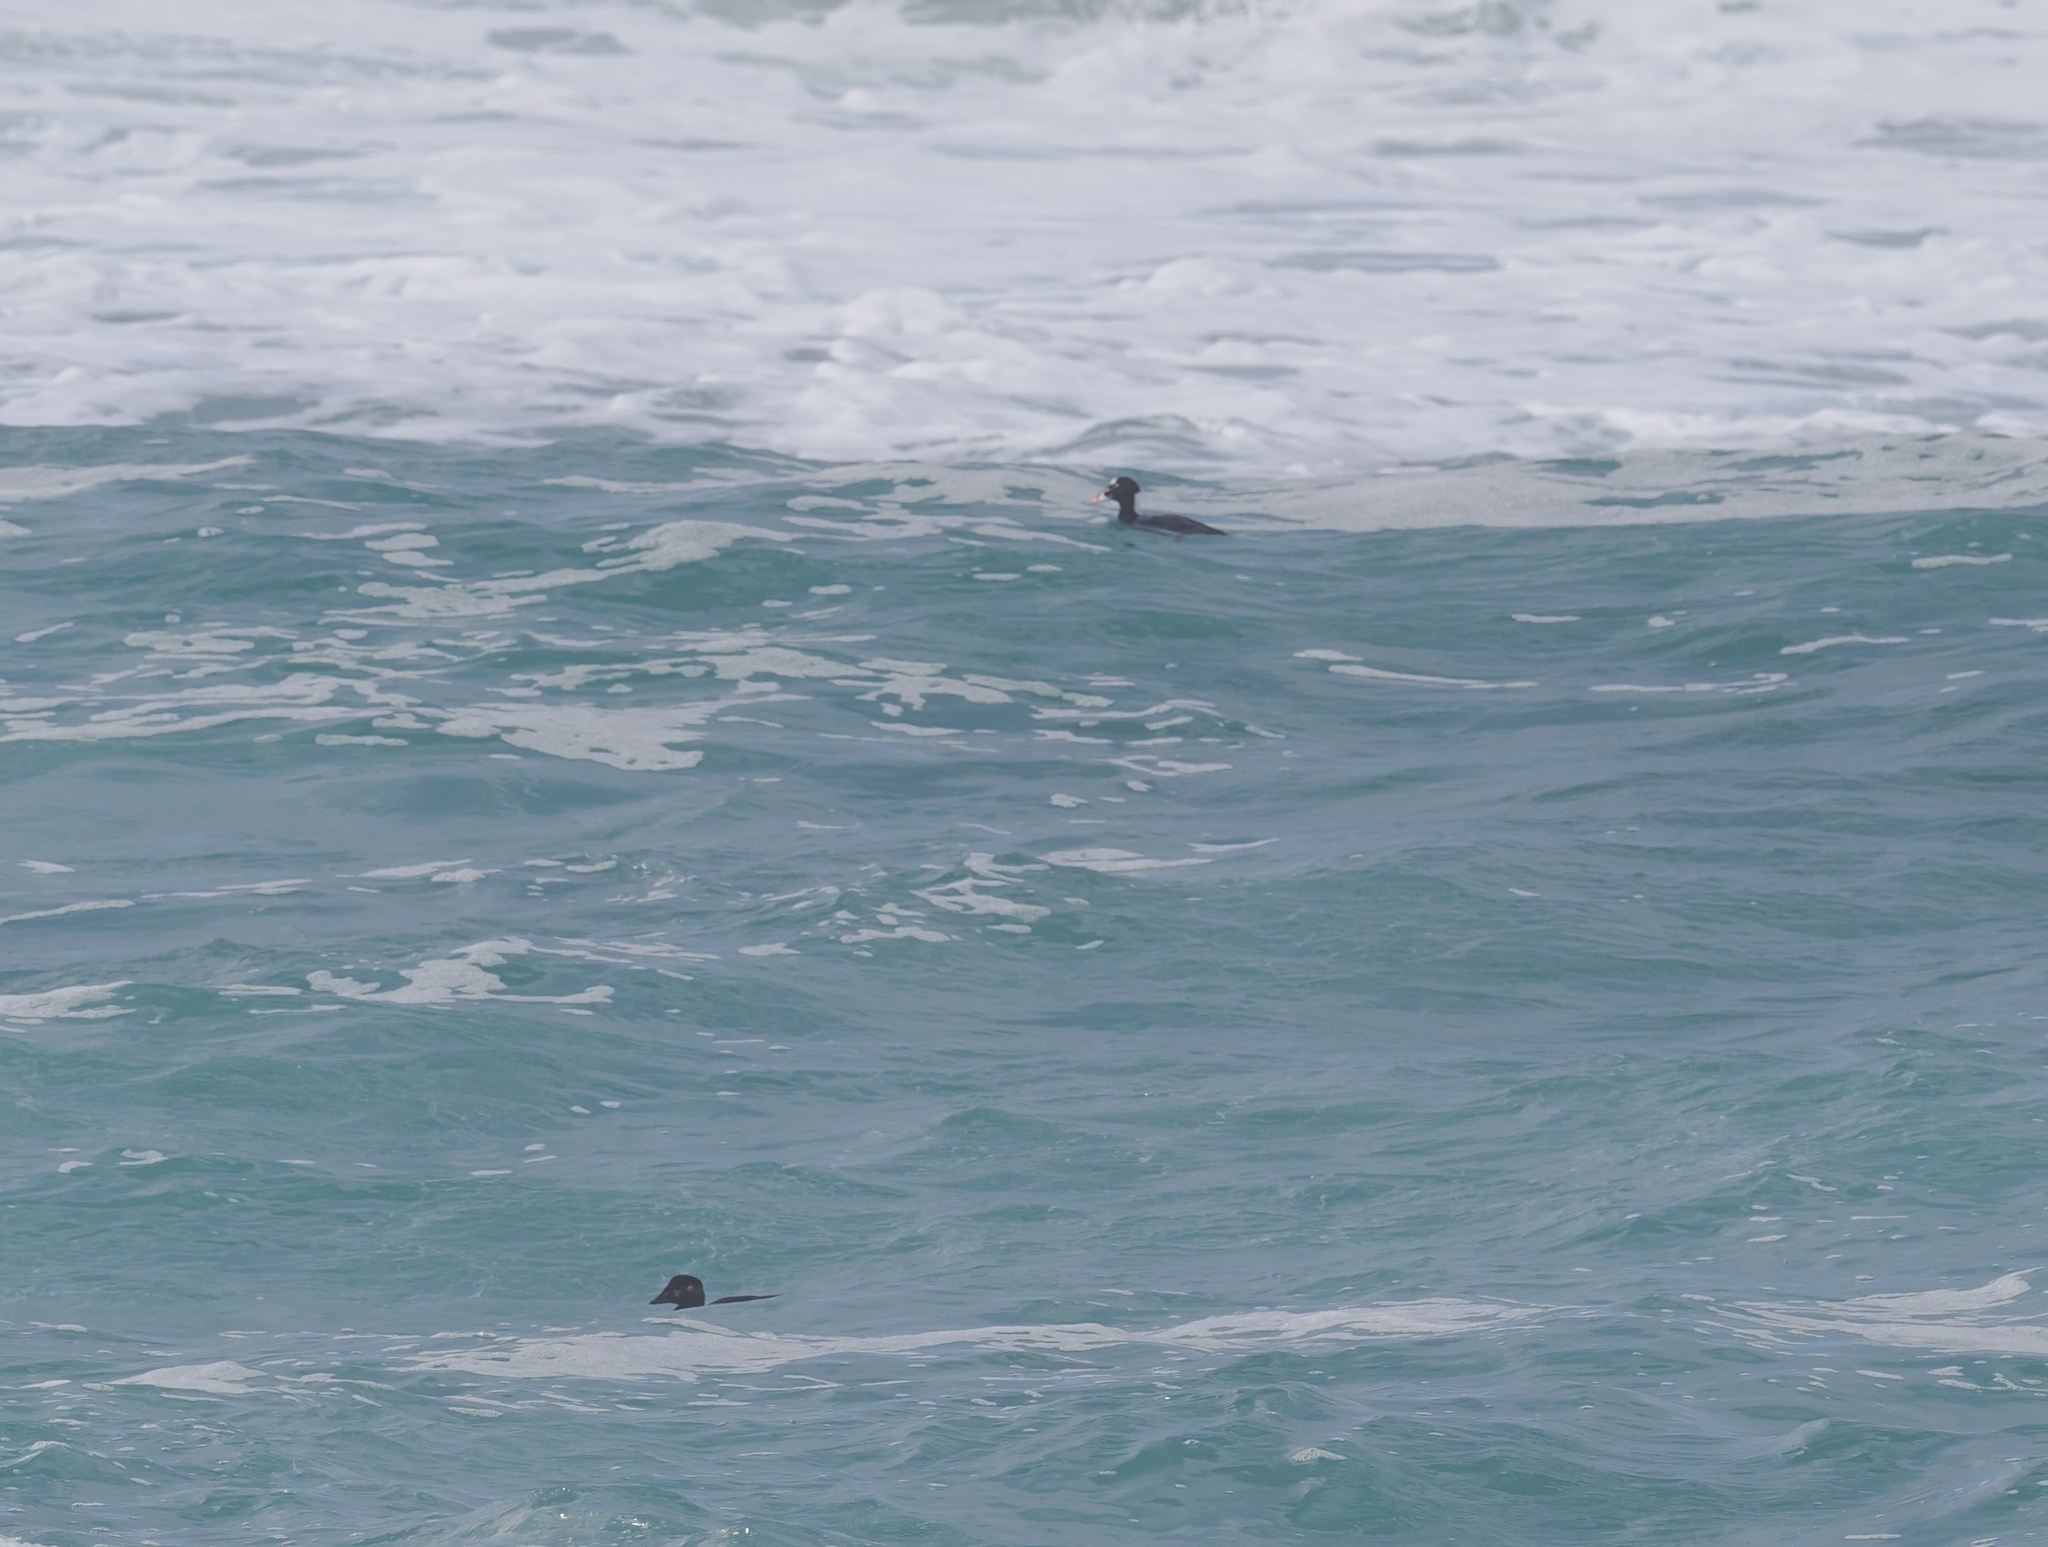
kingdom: Animalia
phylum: Chordata
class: Aves
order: Anseriformes
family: Anatidae
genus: Melanitta
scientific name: Melanitta perspicillata
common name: Surf scoter
